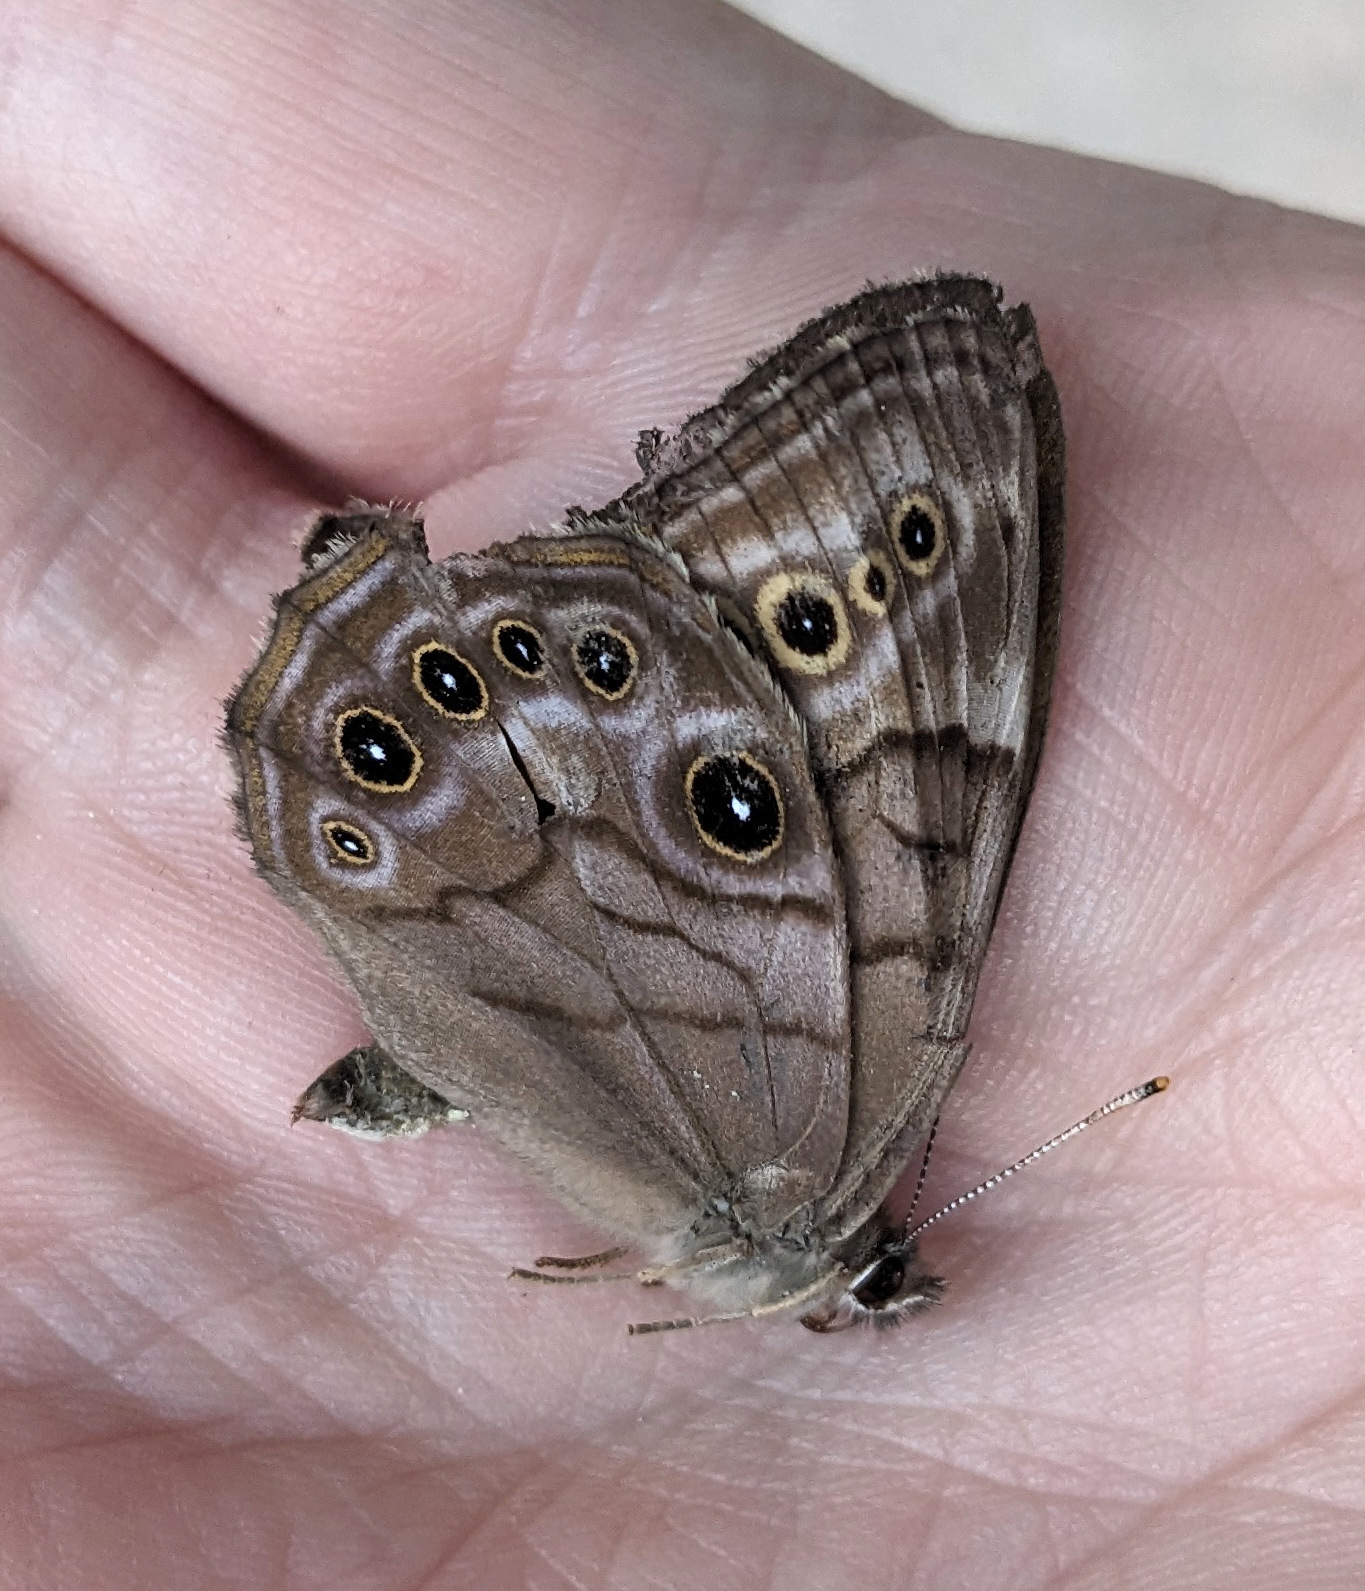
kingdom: Animalia
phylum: Arthropoda
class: Insecta
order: Lepidoptera
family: Nymphalidae
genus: Lethe
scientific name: Lethe anthedon
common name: Northern pearly-eye
